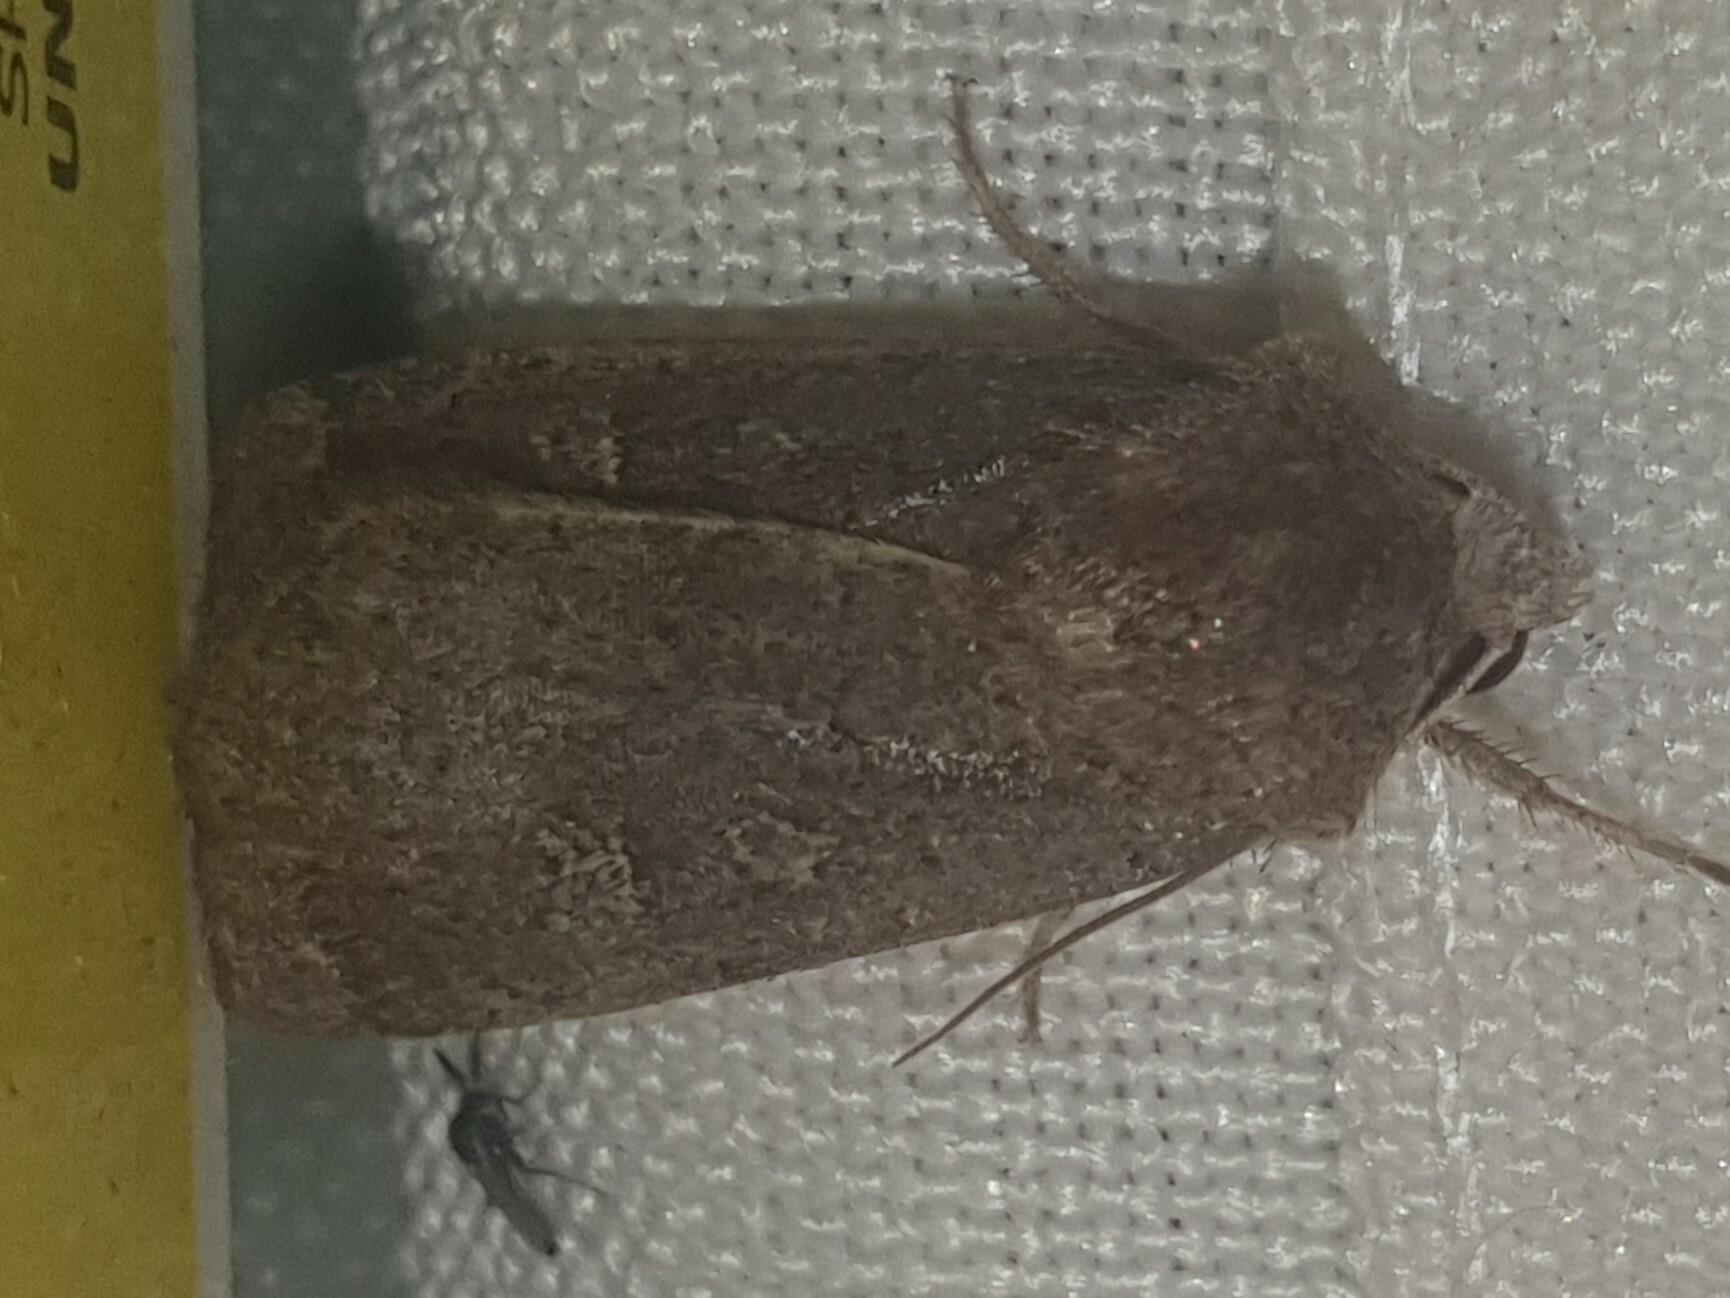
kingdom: Animalia
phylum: Arthropoda
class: Insecta
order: Lepidoptera
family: Noctuidae
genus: Xestia
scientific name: Xestia xanthographa
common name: Square-spot rustic
